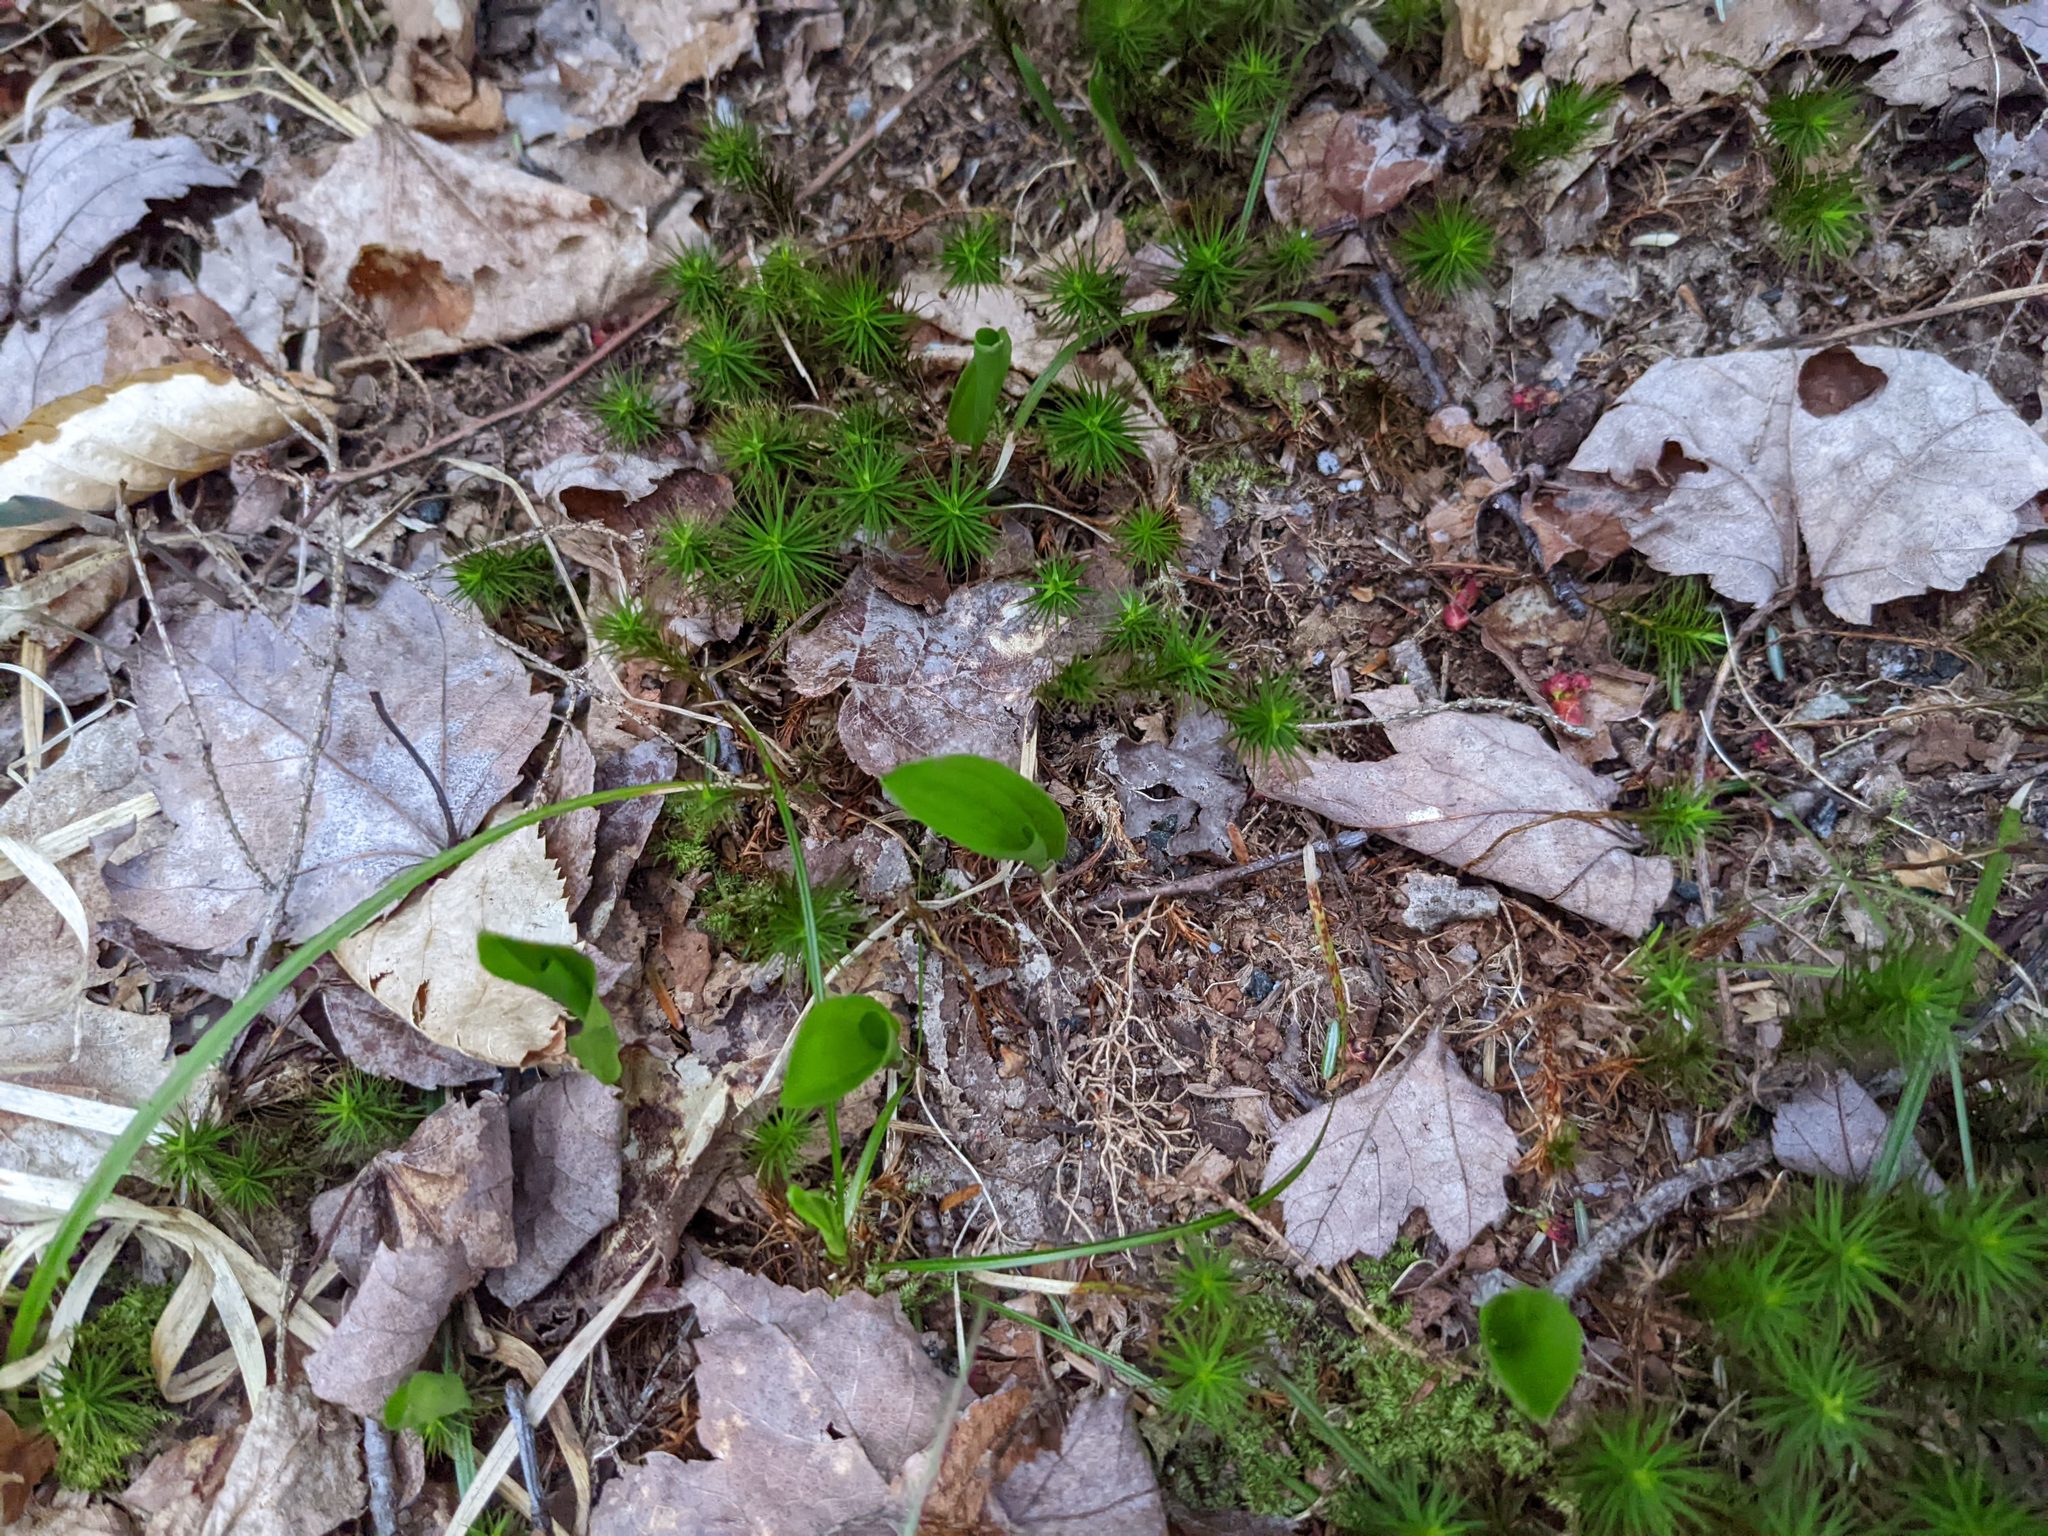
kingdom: Plantae
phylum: Tracheophyta
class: Liliopsida
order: Asparagales
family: Asparagaceae
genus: Maianthemum
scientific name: Maianthemum canadense
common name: False lily-of-the-valley
